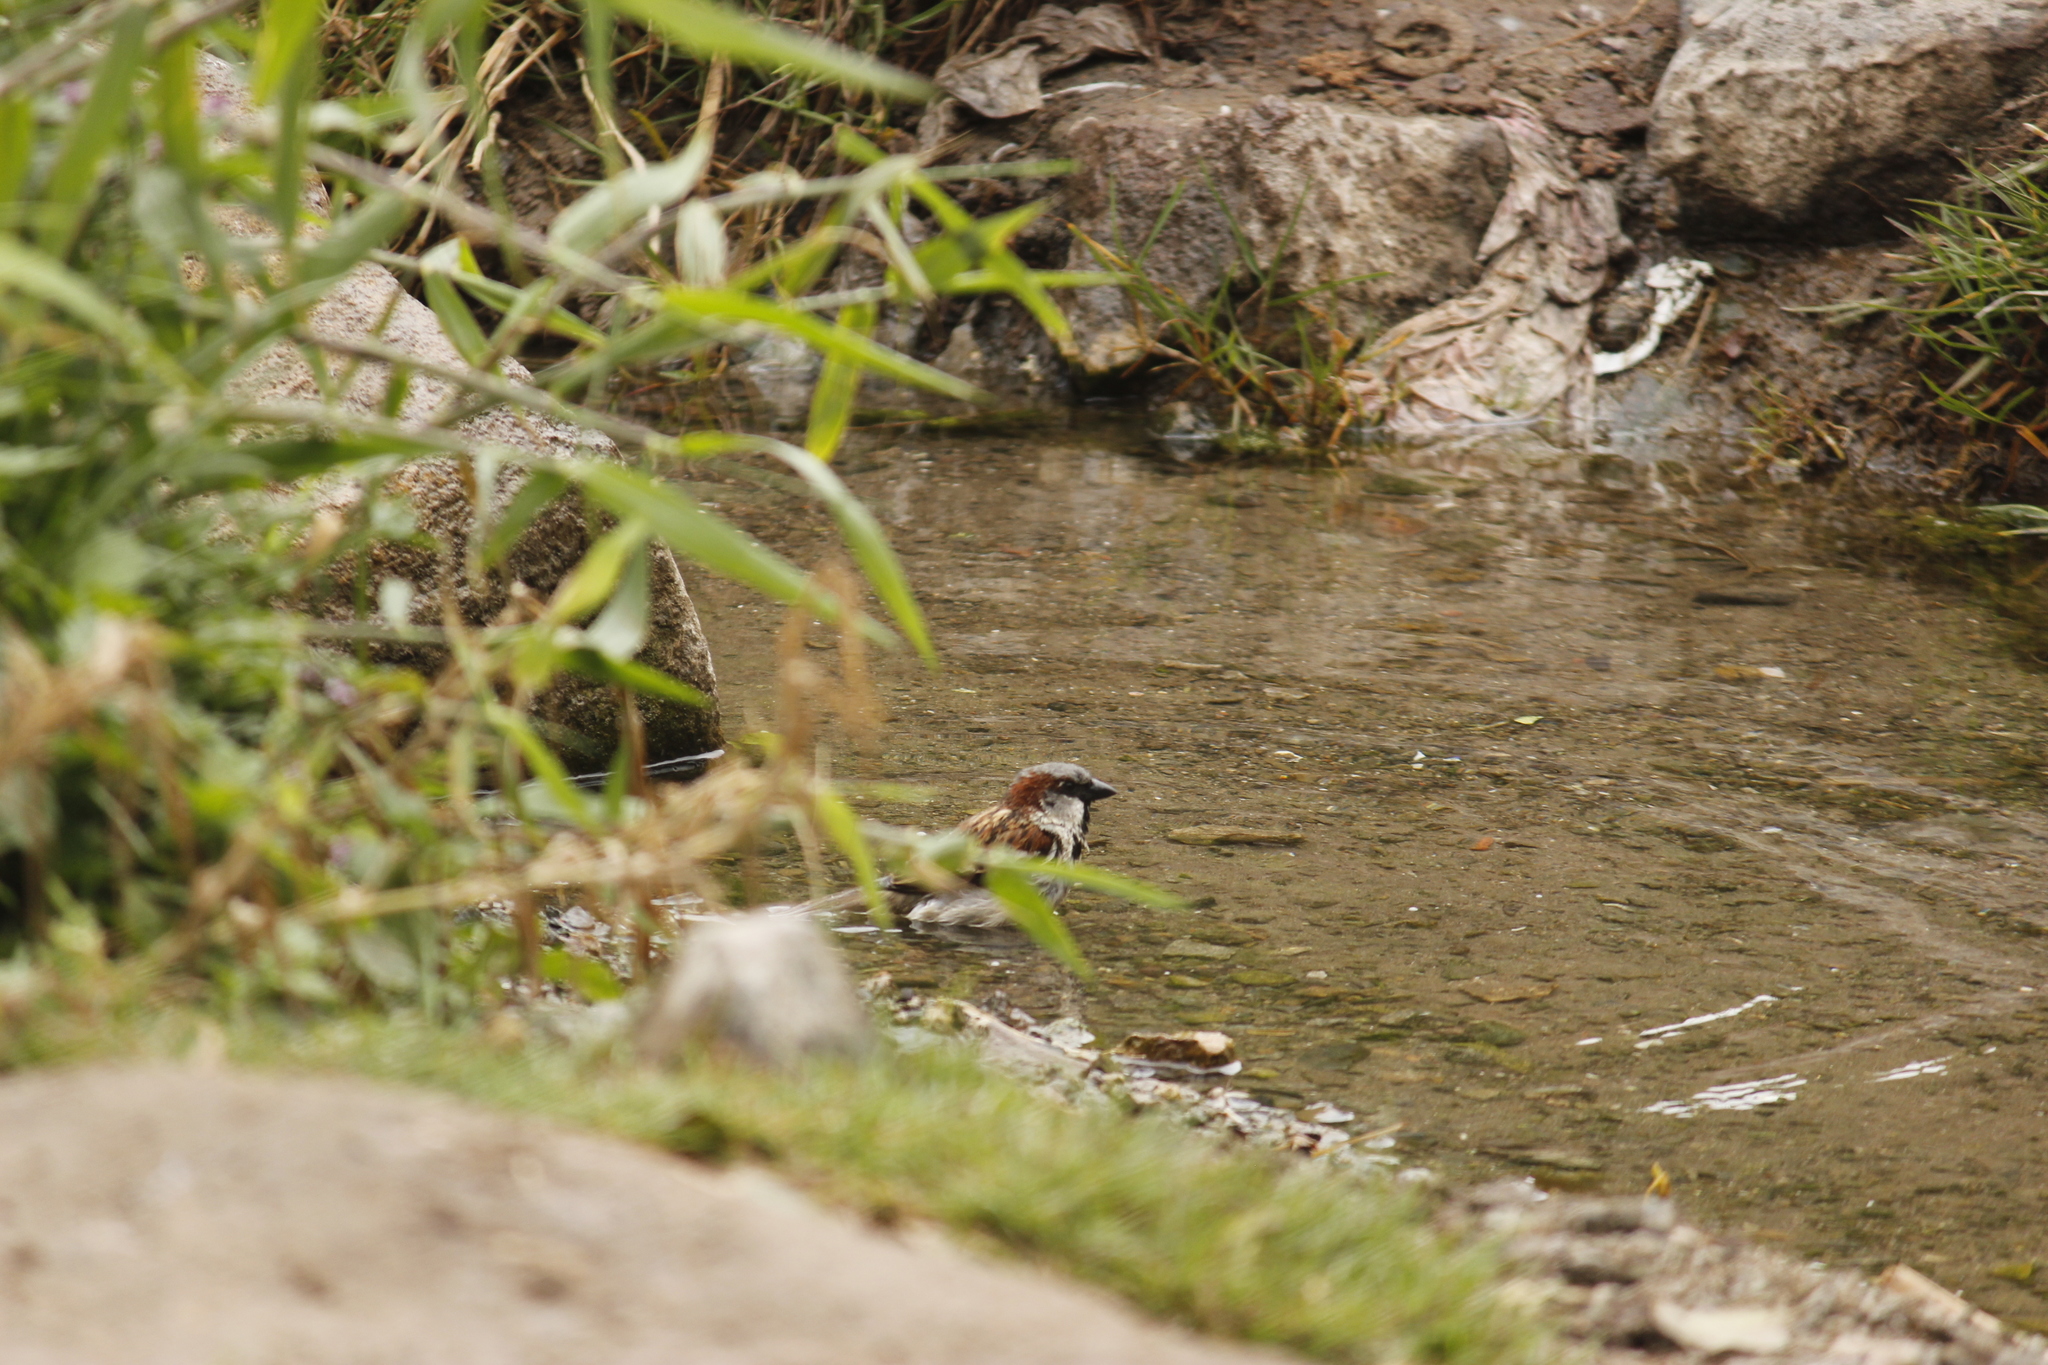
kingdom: Animalia
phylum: Chordata
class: Aves
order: Passeriformes
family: Passeridae
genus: Passer
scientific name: Passer domesticus
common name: House sparrow
